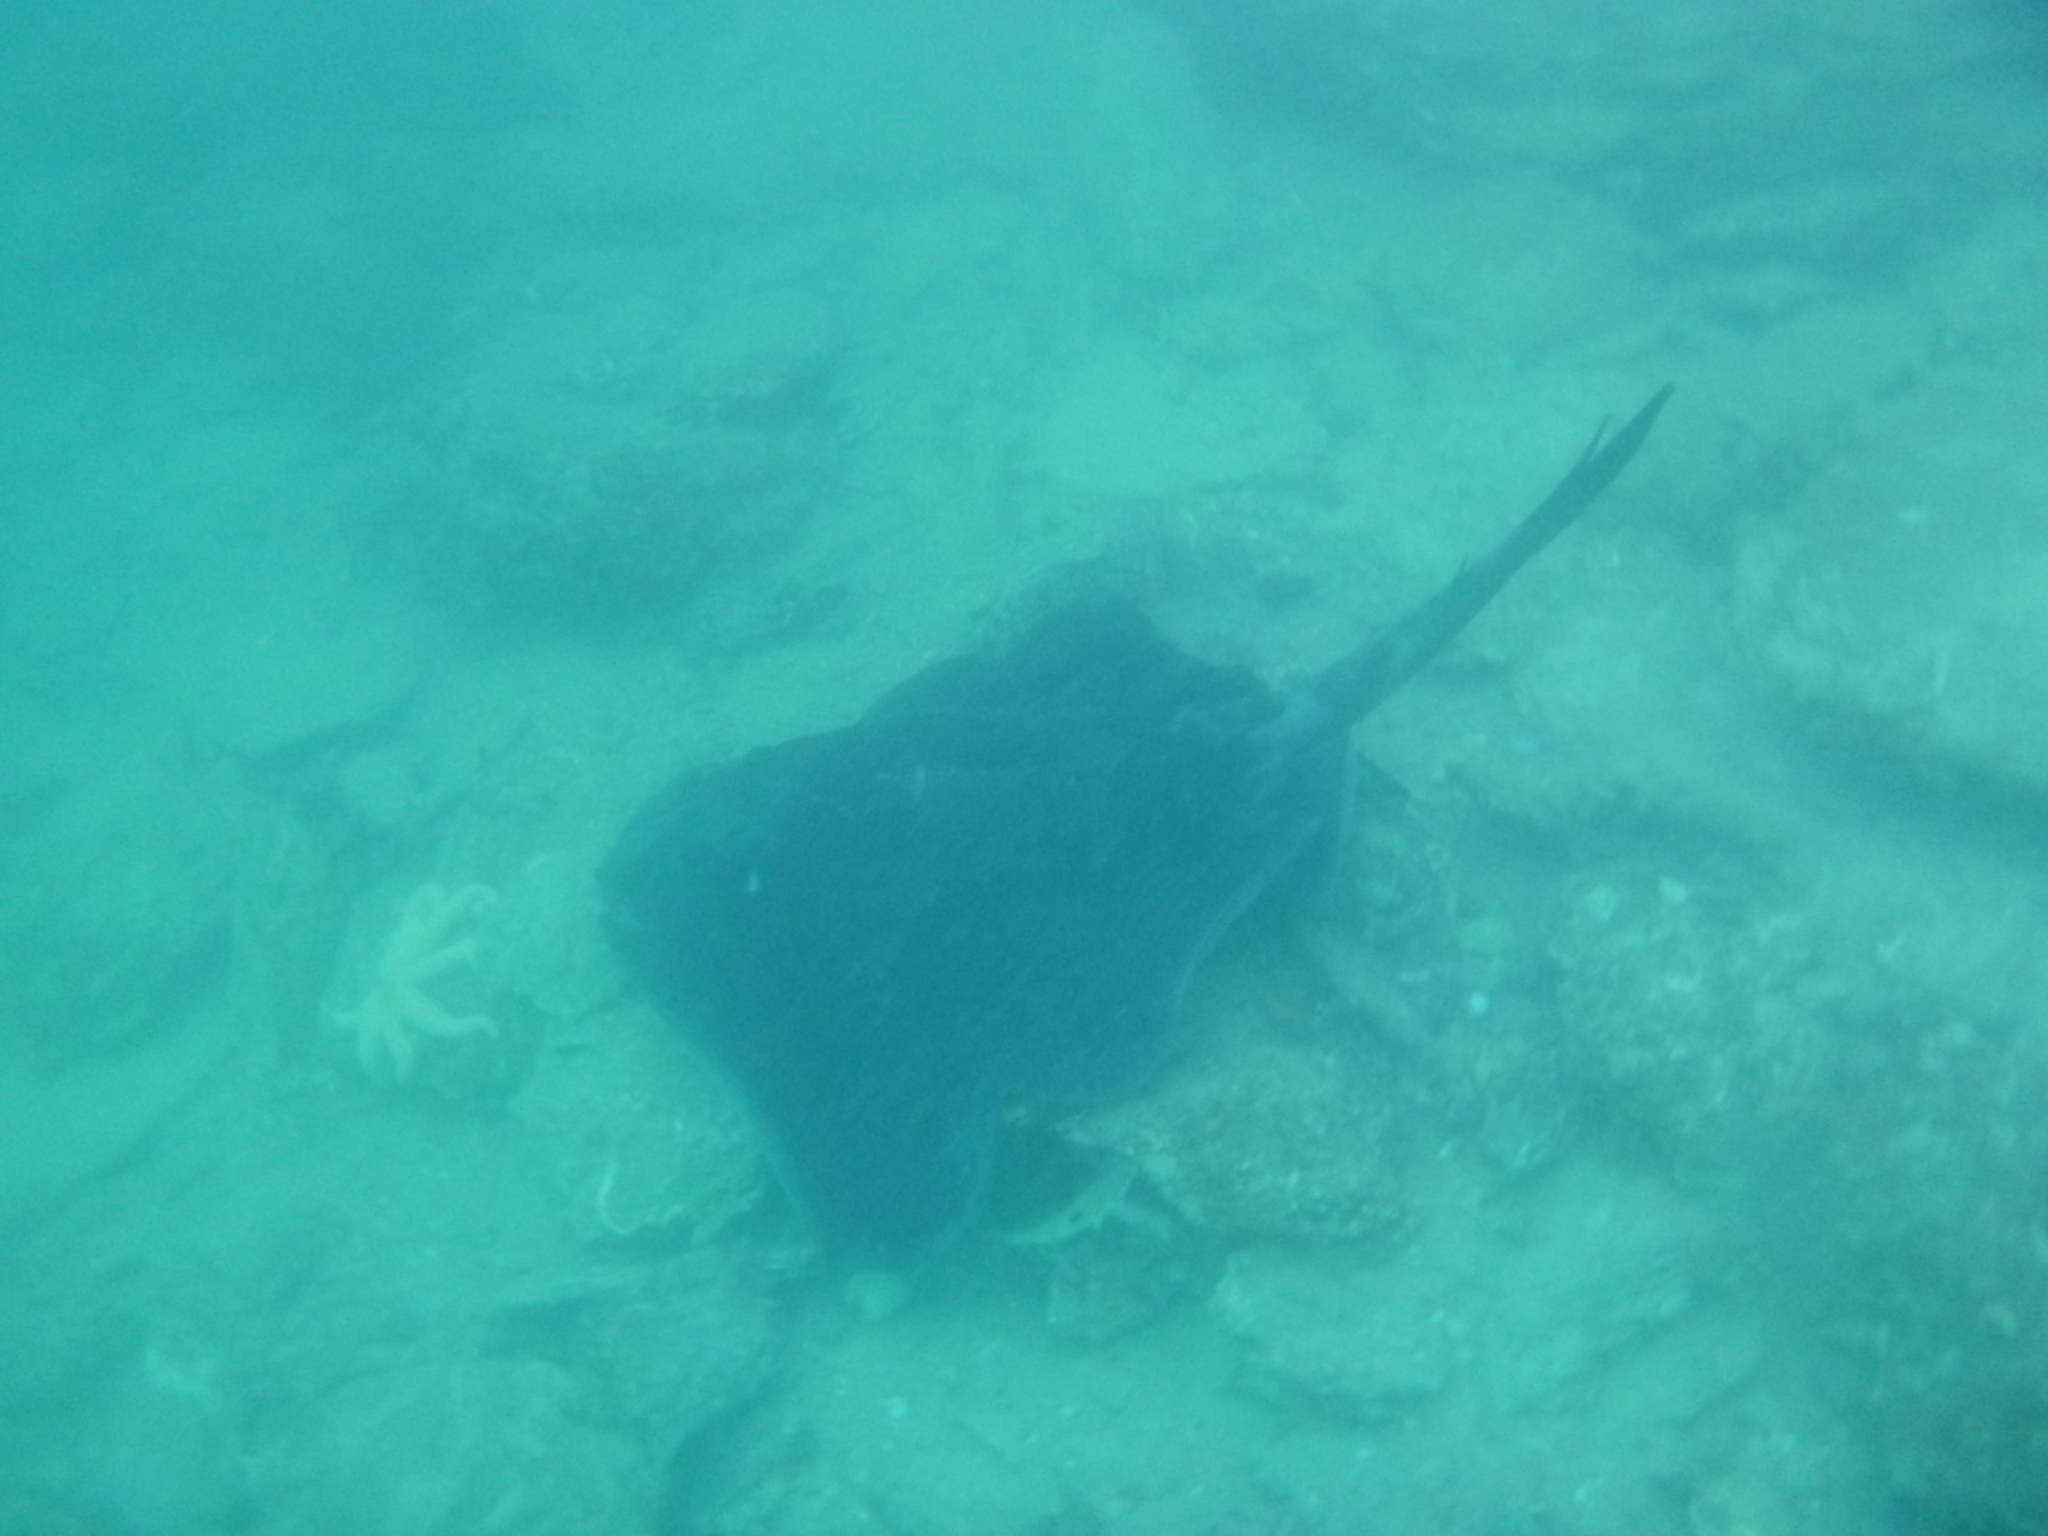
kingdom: Animalia
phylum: Chordata
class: Elasmobranchii
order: Myliobatiformes
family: Dasyatidae
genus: Bathytoshia
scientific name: Bathytoshia brevicaudata
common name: Short-tail stingray
